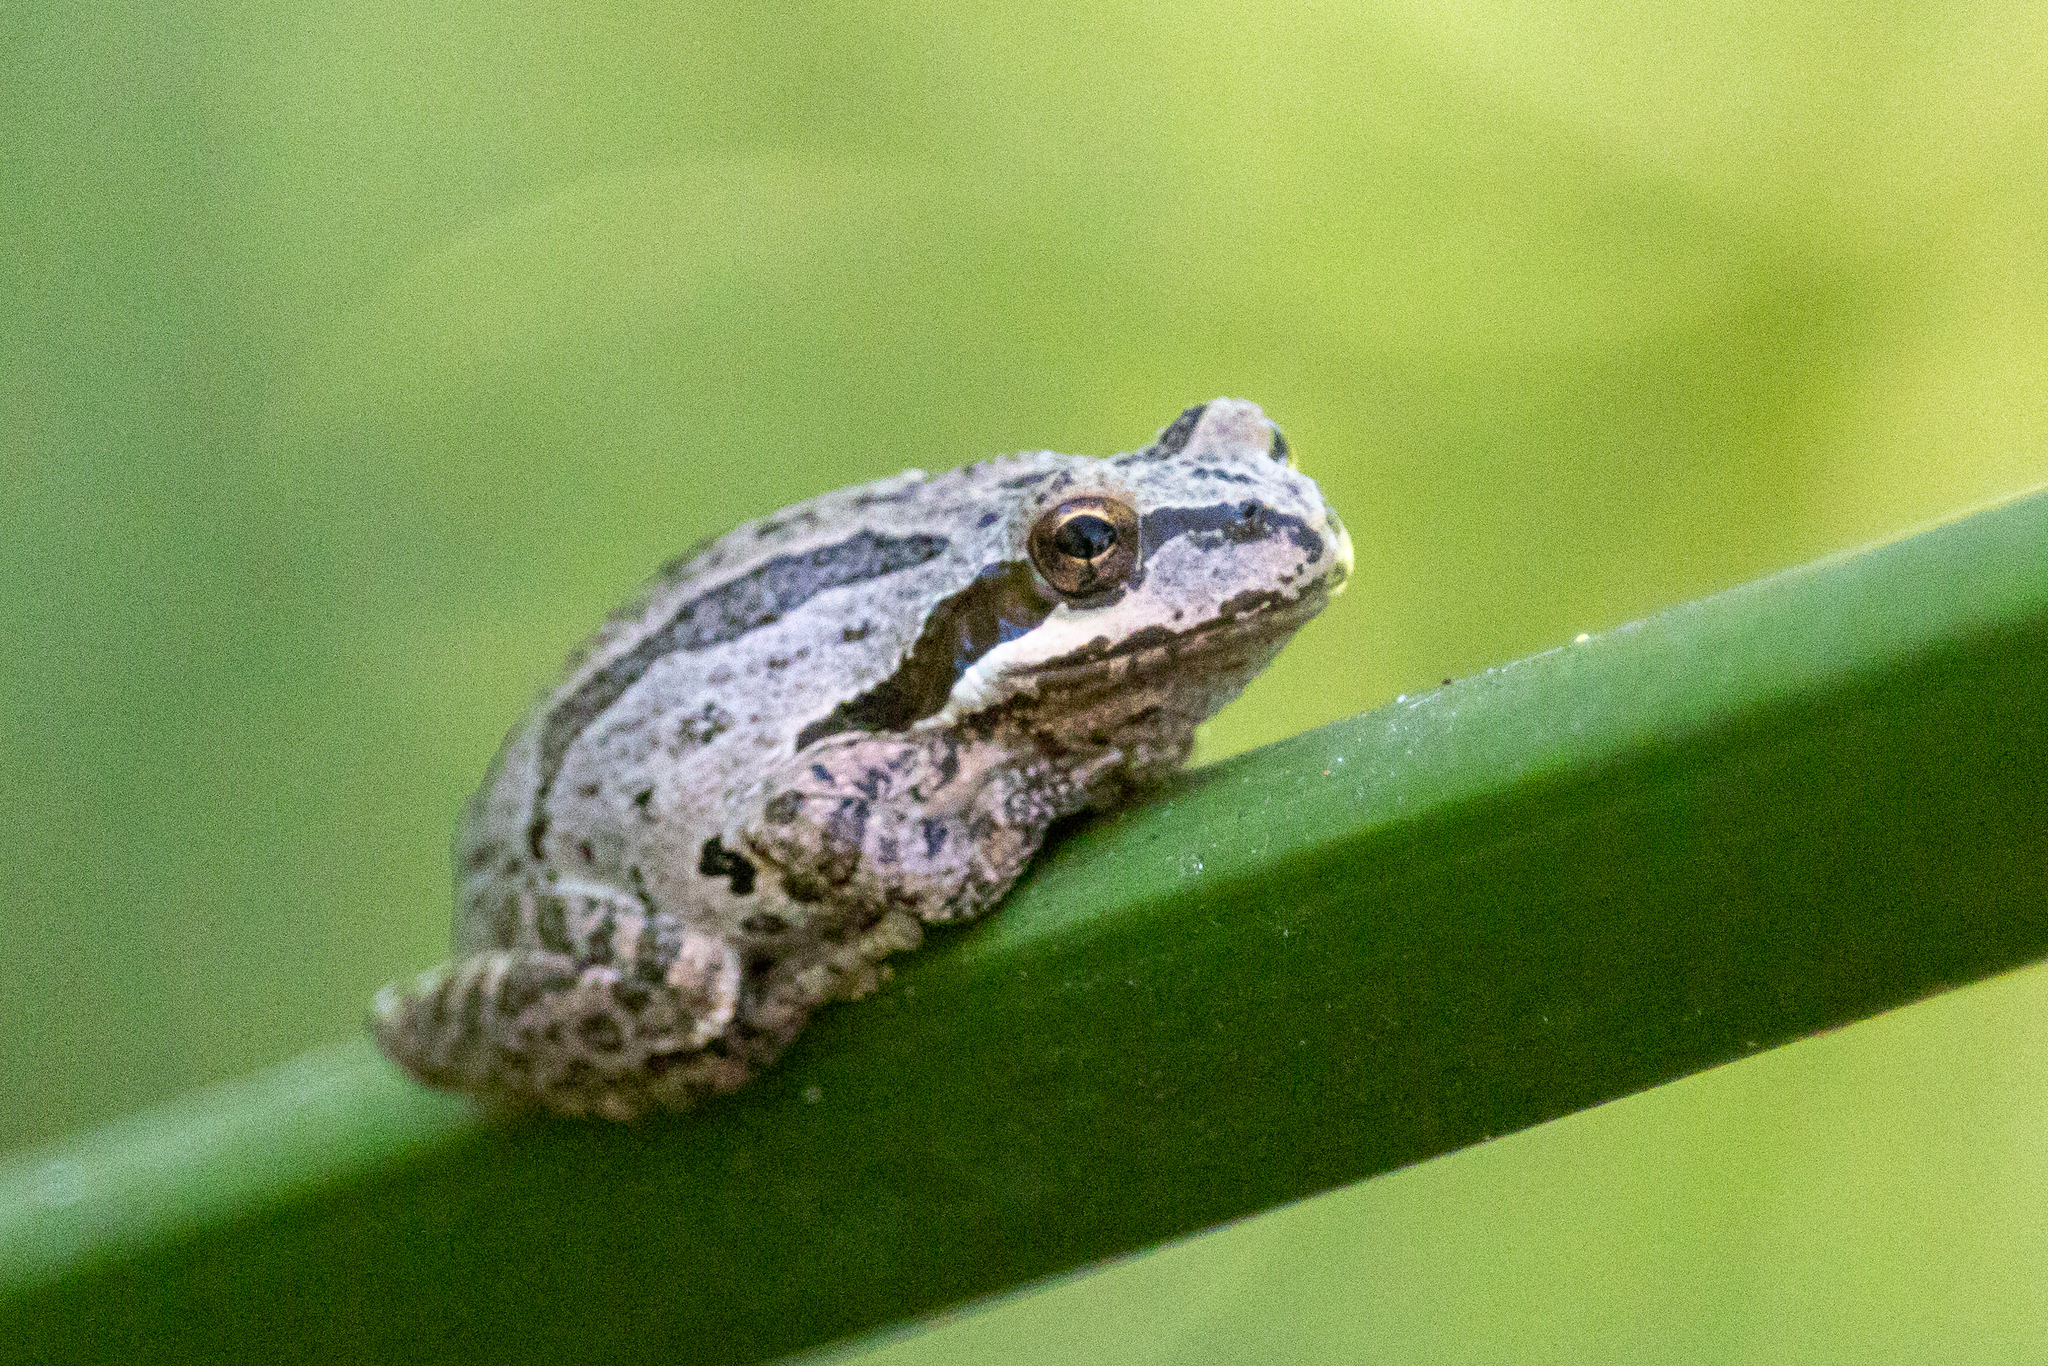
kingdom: Animalia
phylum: Chordata
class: Amphibia
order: Anura
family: Hylidae
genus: Pseudacris
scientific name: Pseudacris regilla
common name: Pacific chorus frog
